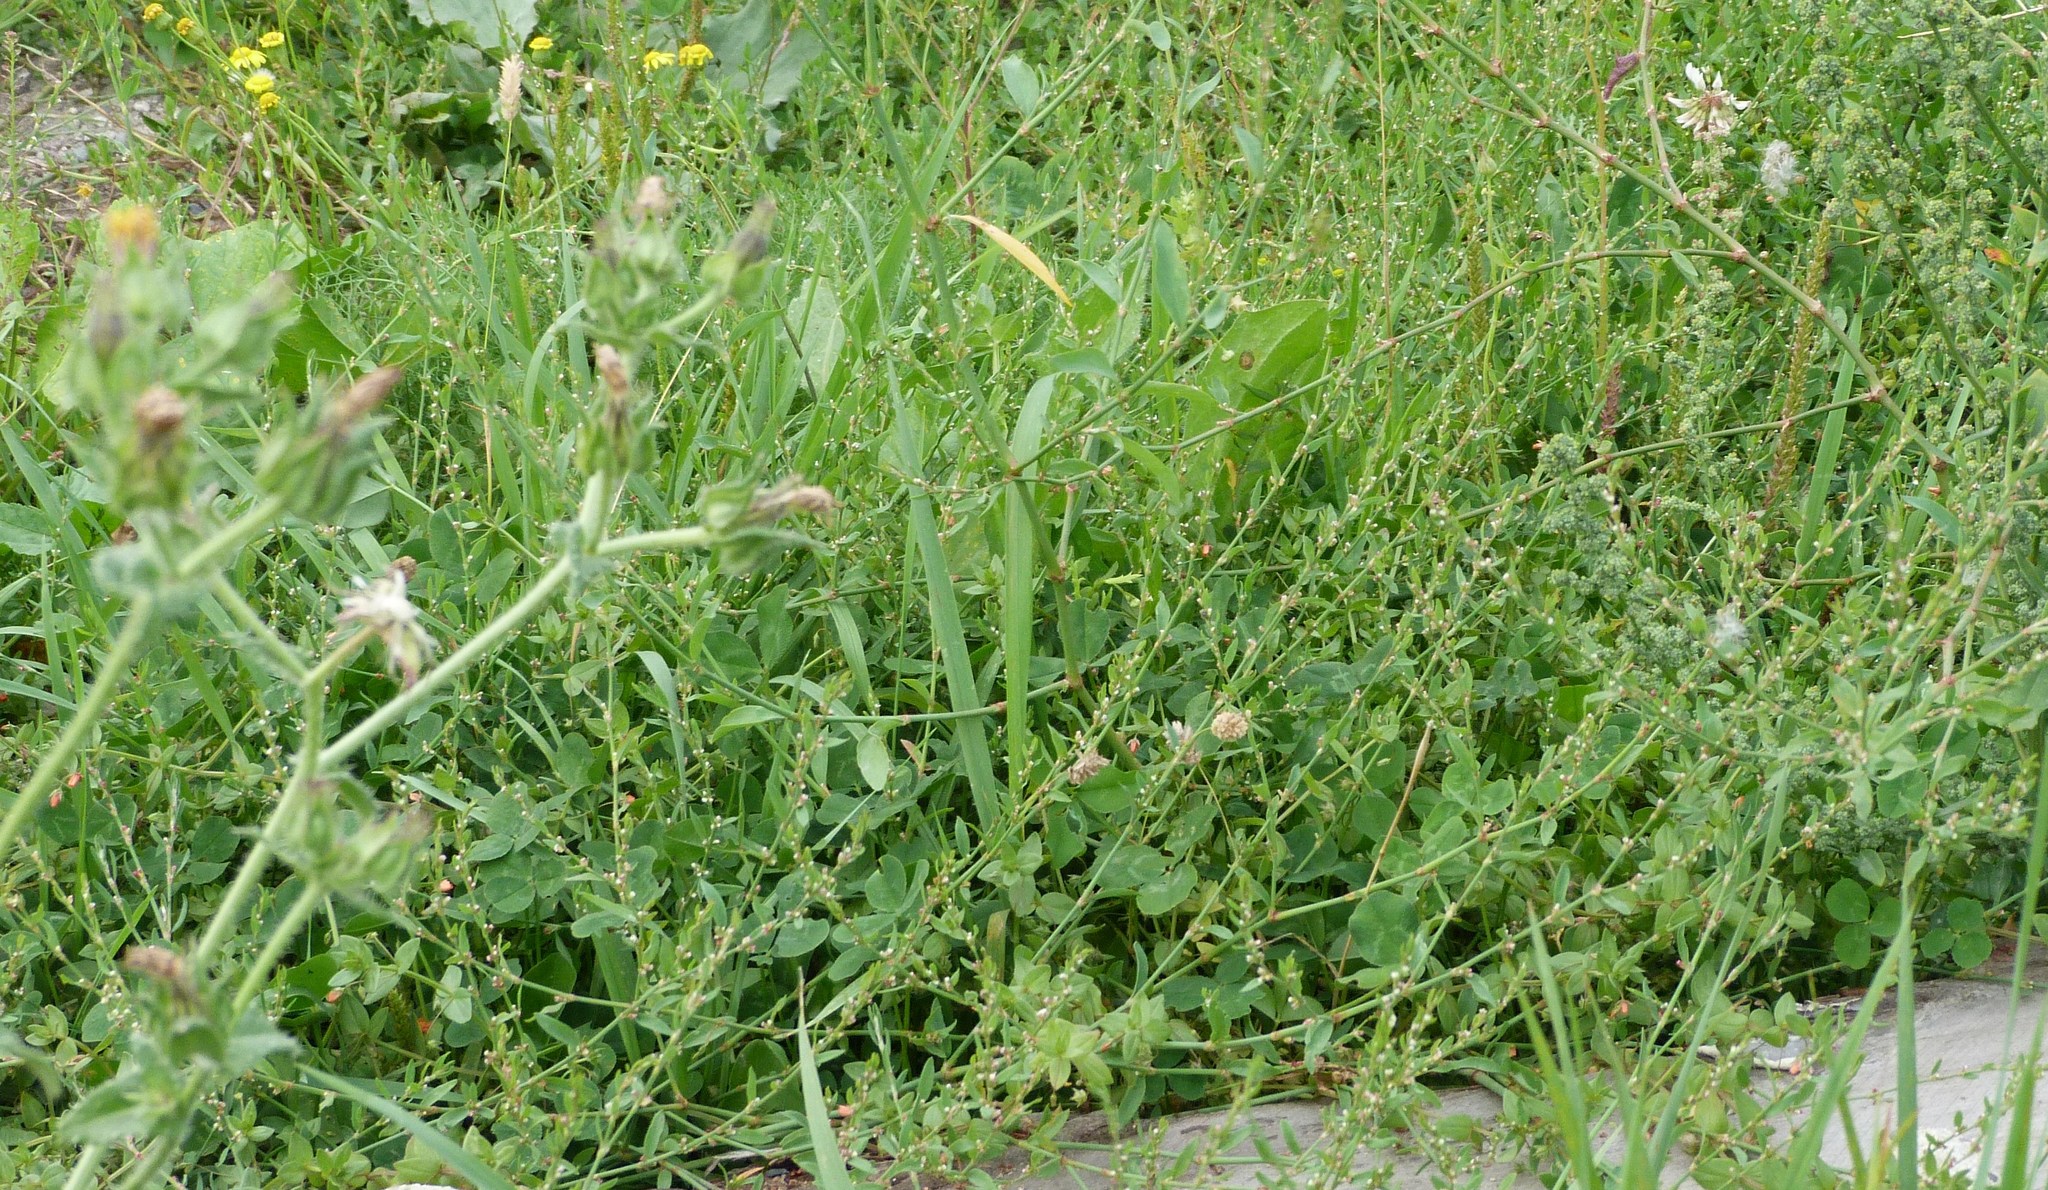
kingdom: Plantae
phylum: Tracheophyta
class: Magnoliopsida
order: Caryophyllales
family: Polygonaceae
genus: Polygonum
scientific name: Polygonum aviculare
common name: Prostrate knotweed
